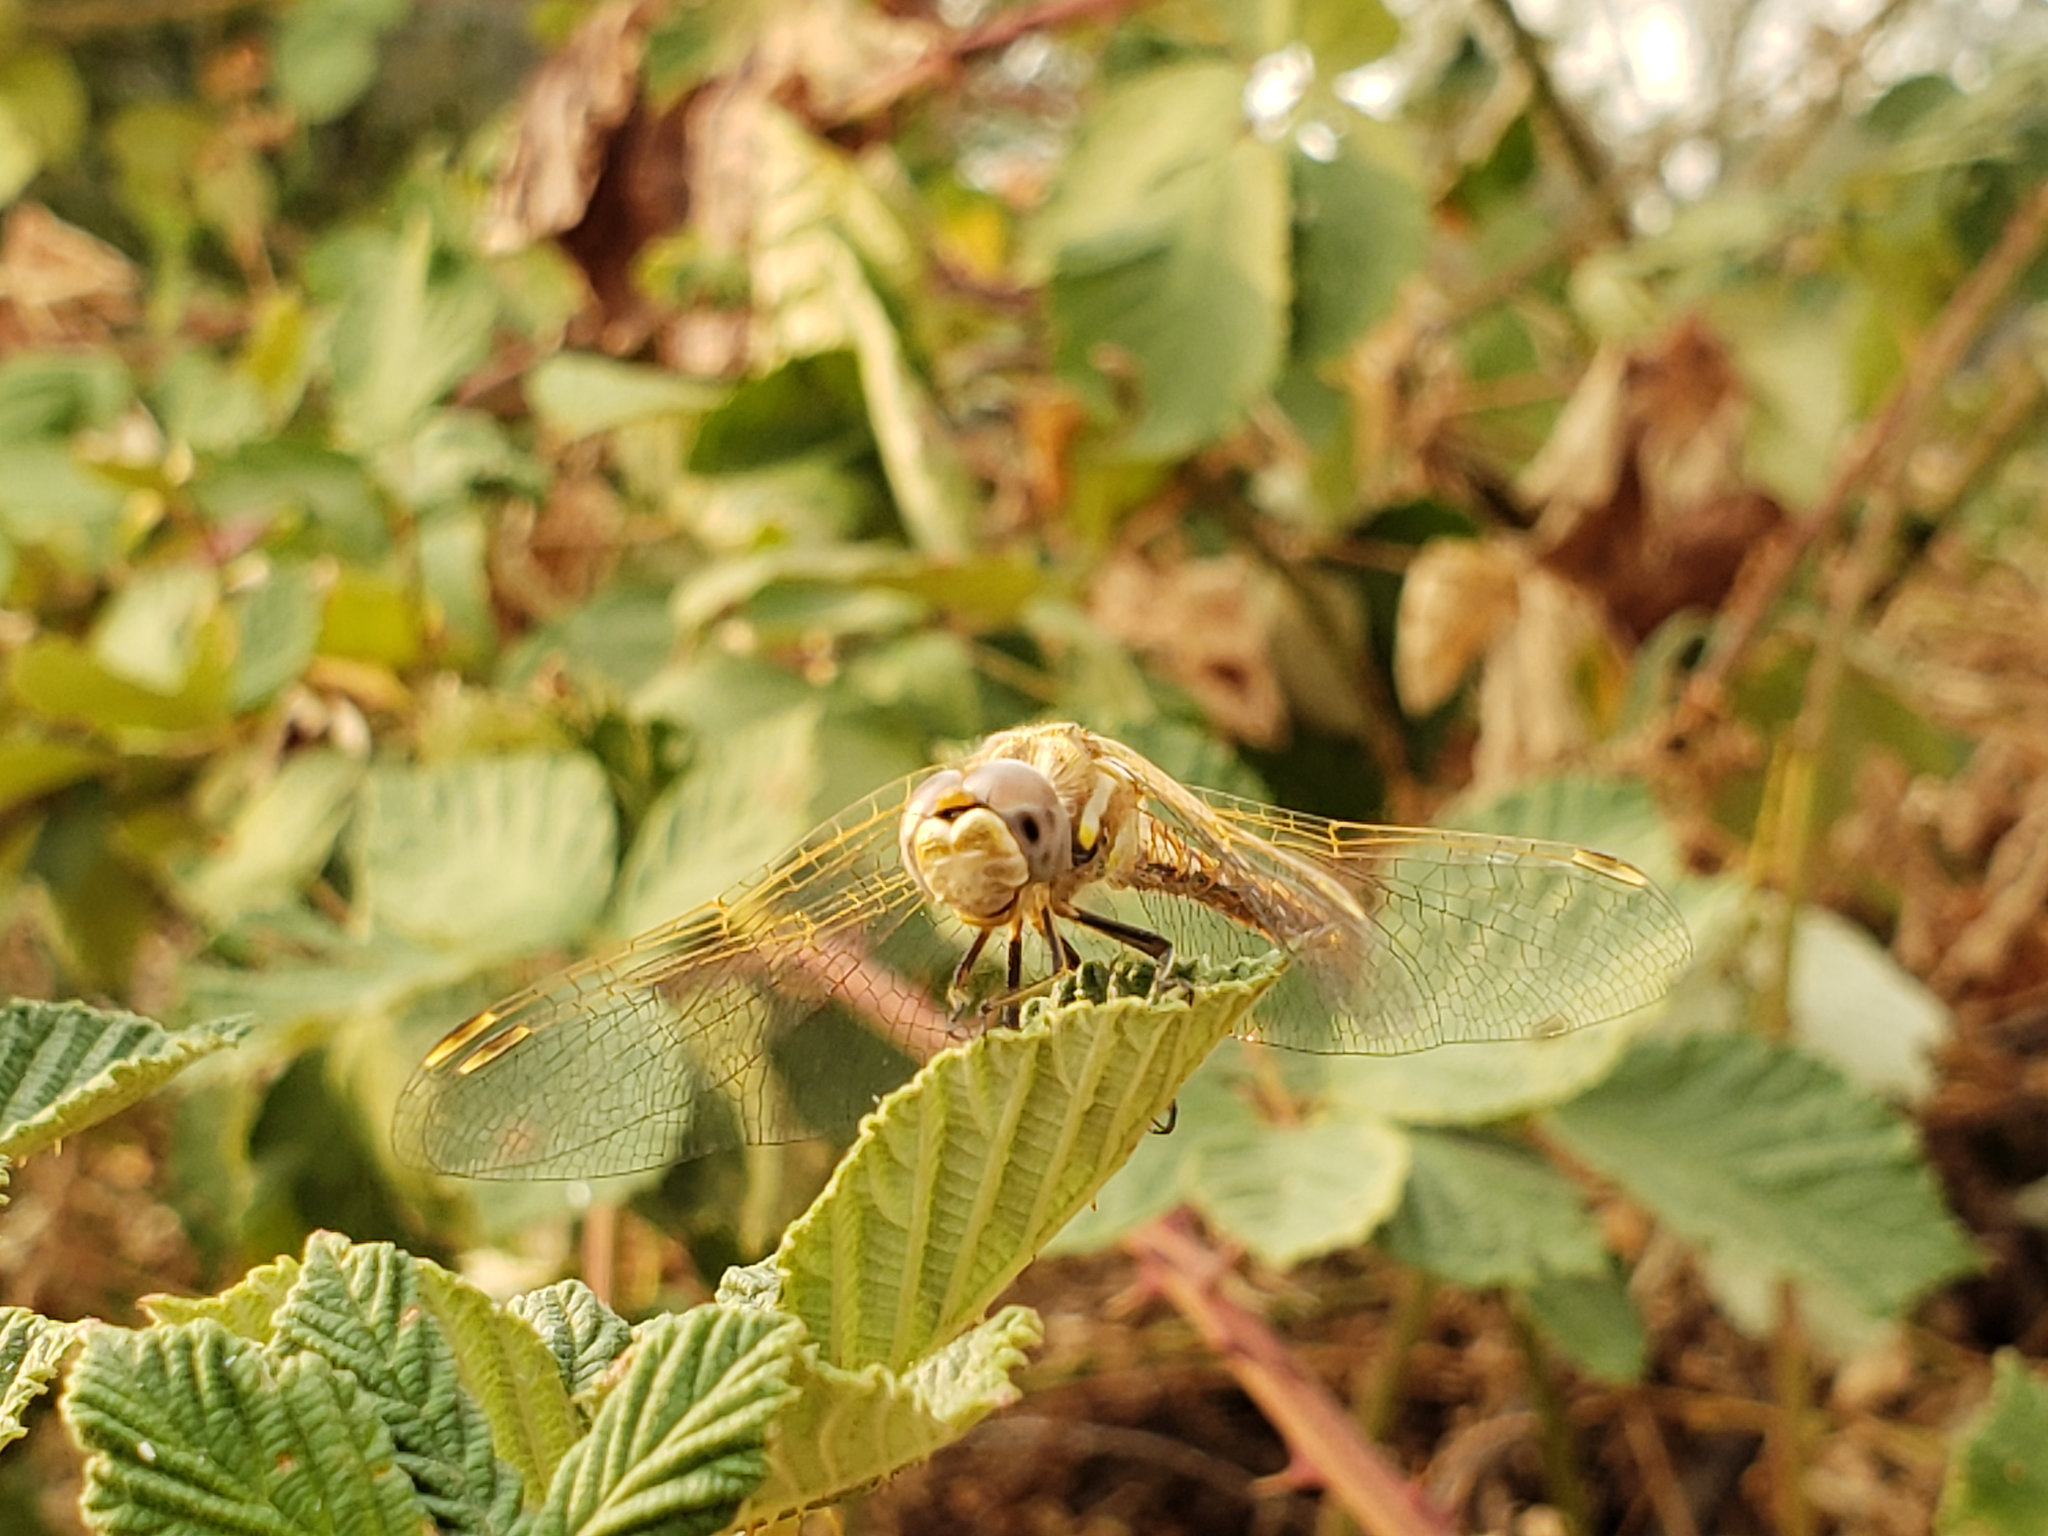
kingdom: Animalia
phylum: Arthropoda
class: Insecta
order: Odonata
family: Libellulidae
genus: Sympetrum
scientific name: Sympetrum corruptum
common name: Variegated meadowhawk
